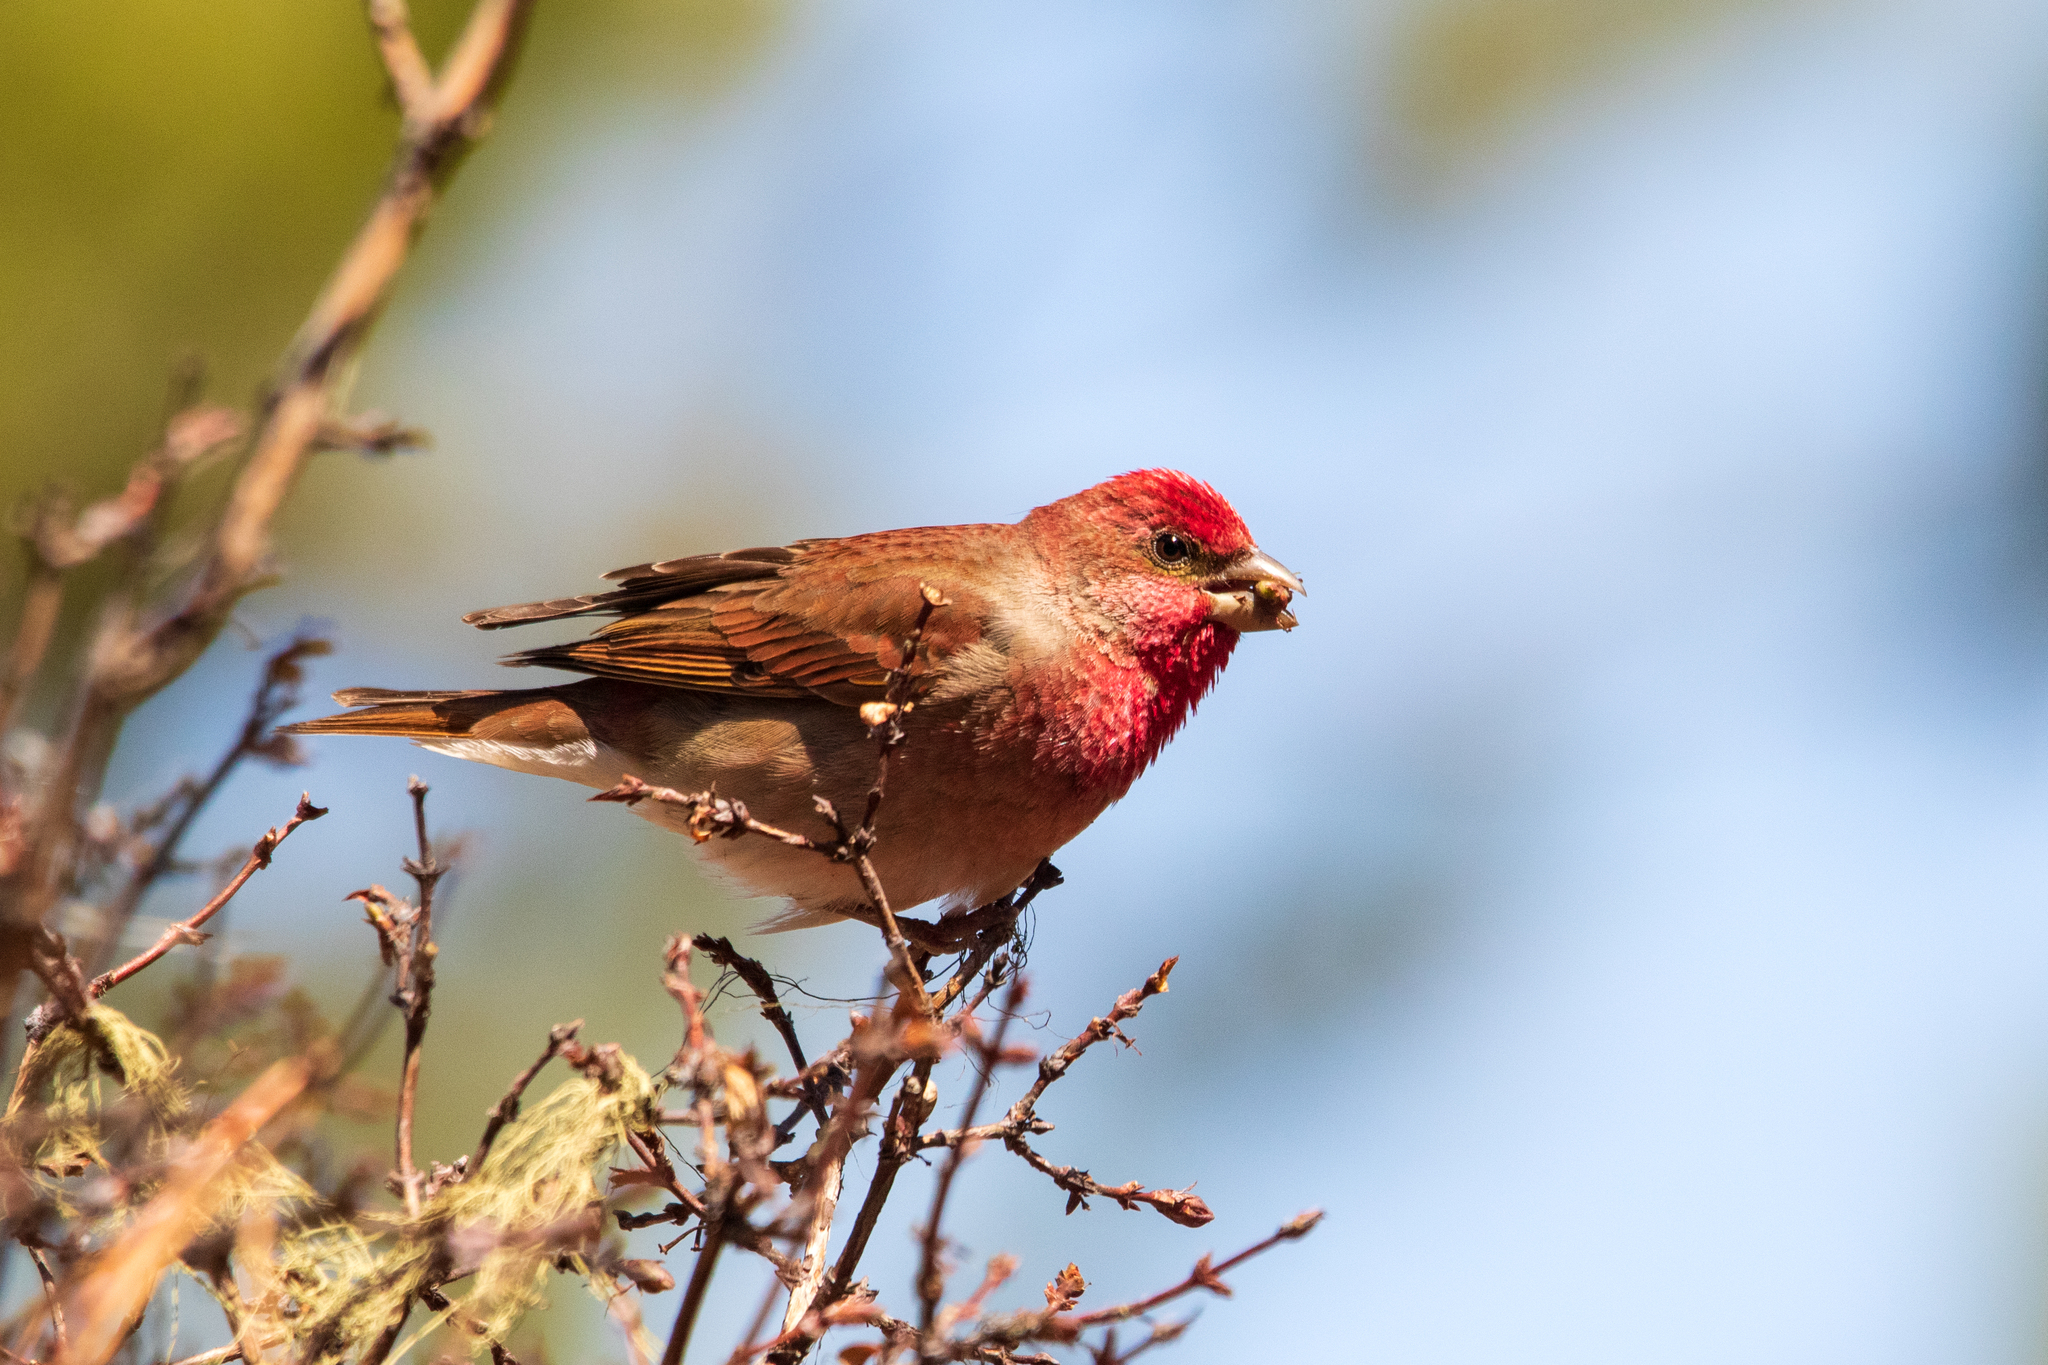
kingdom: Animalia
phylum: Chordata
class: Aves
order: Passeriformes
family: Fringillidae
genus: Carpodacus
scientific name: Carpodacus erythrinus
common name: Common rosefinch
